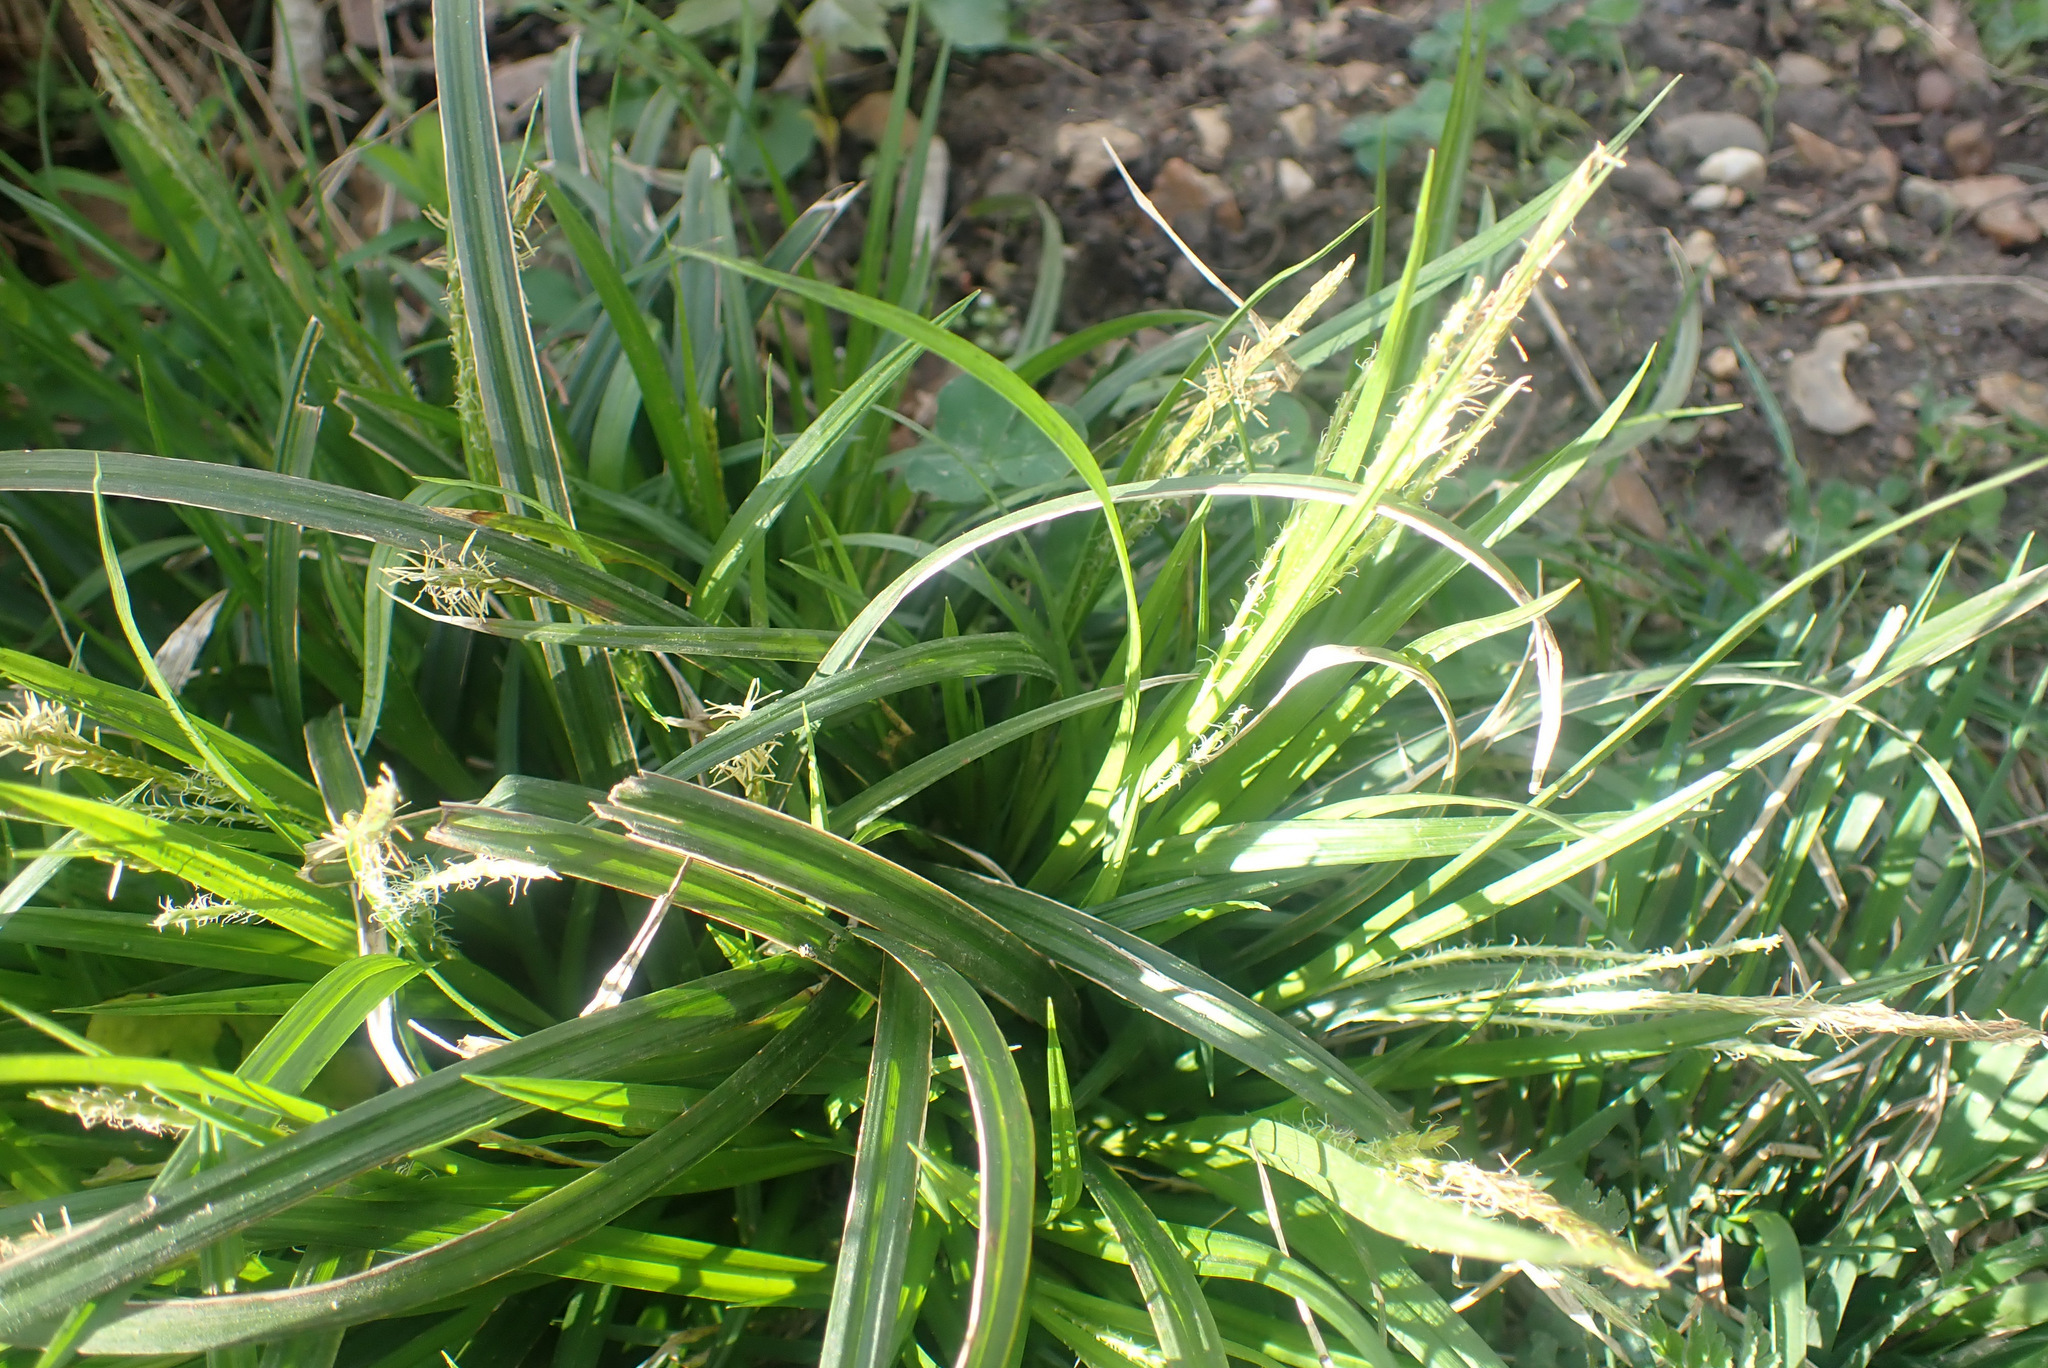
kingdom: Plantae
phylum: Tracheophyta
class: Liliopsida
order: Poales
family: Cyperaceae
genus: Carex
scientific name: Carex sylvatica
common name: Wood-sedge
